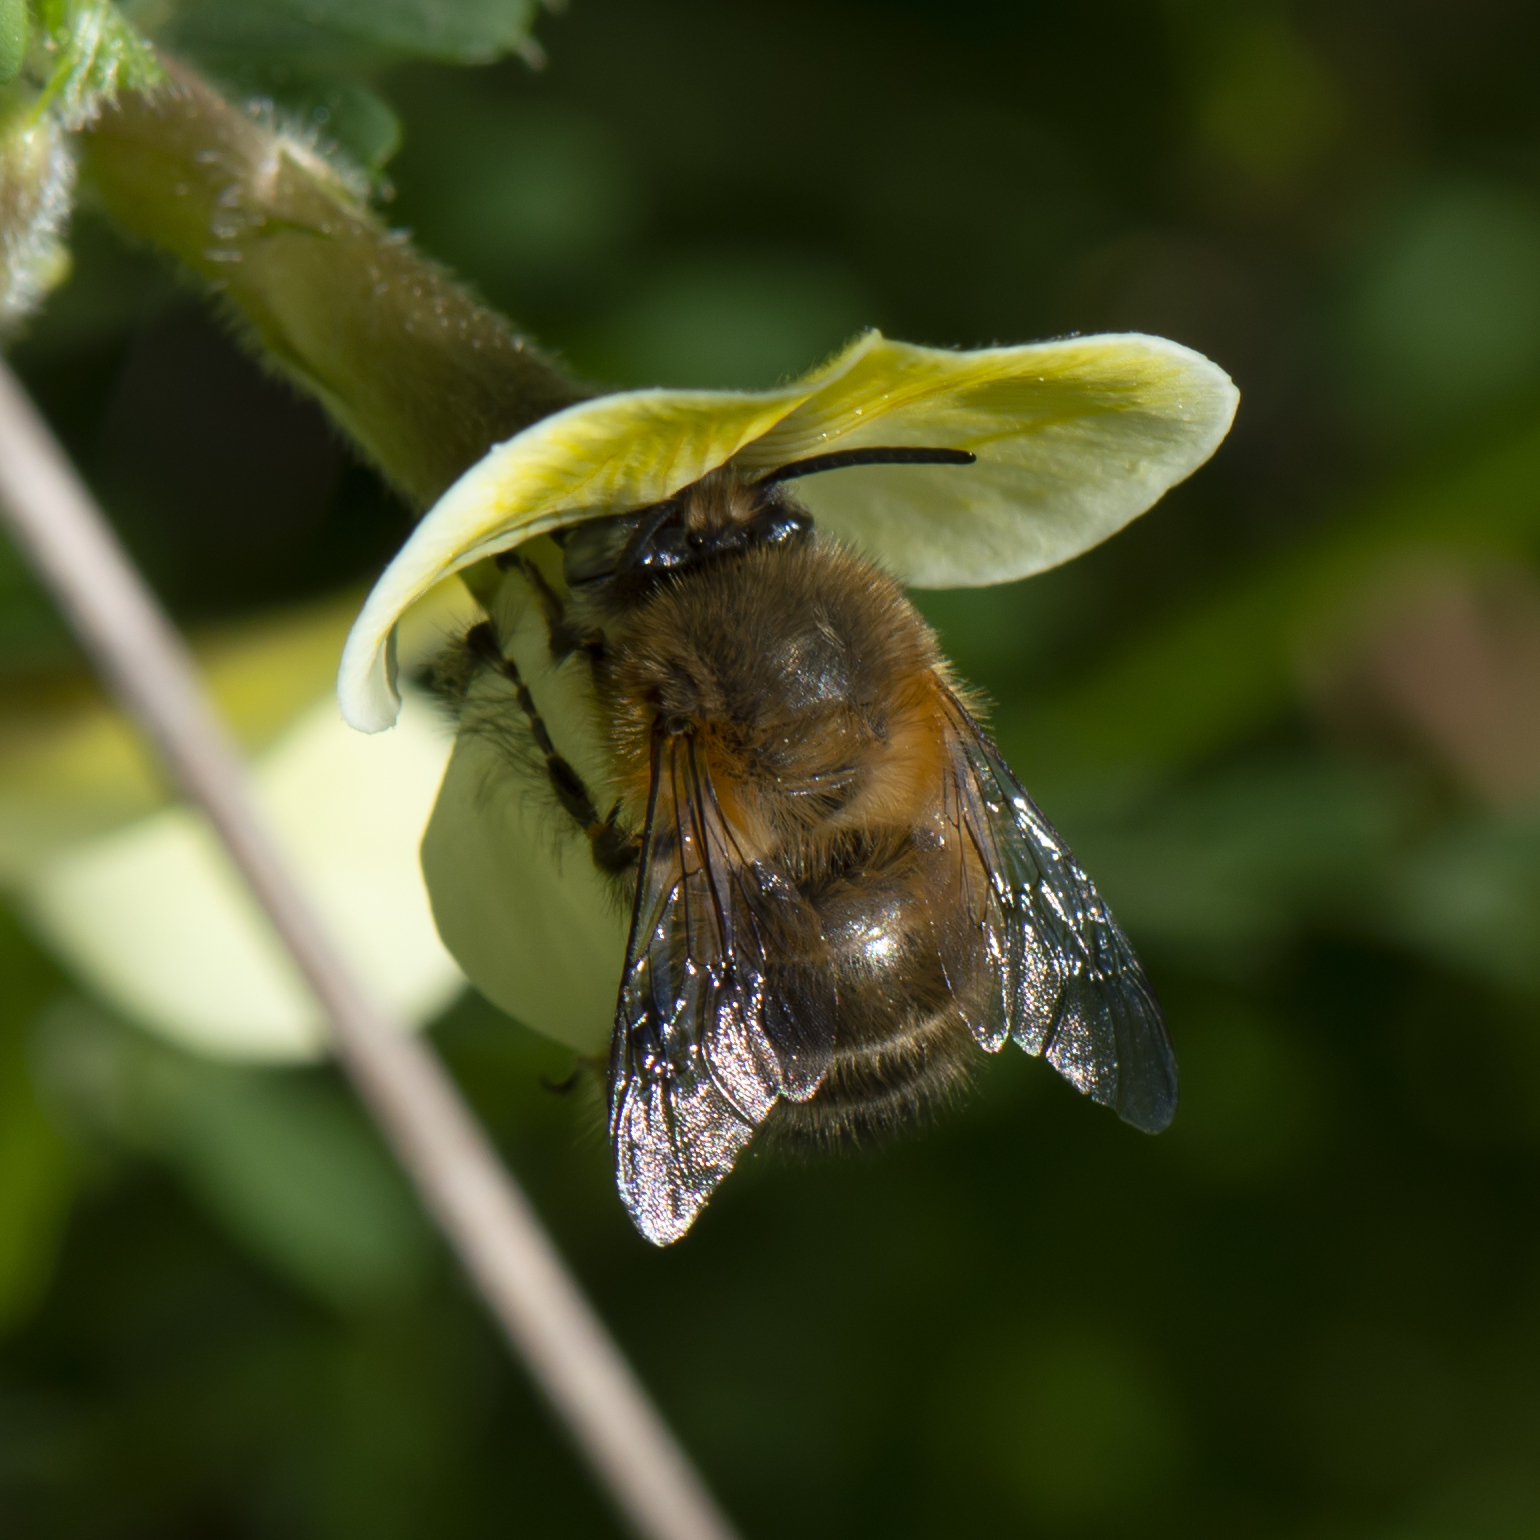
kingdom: Animalia
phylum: Arthropoda
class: Insecta
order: Hymenoptera
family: Apidae
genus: Anthophora
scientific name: Anthophora plumipes
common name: Hairy-footed flower bee
